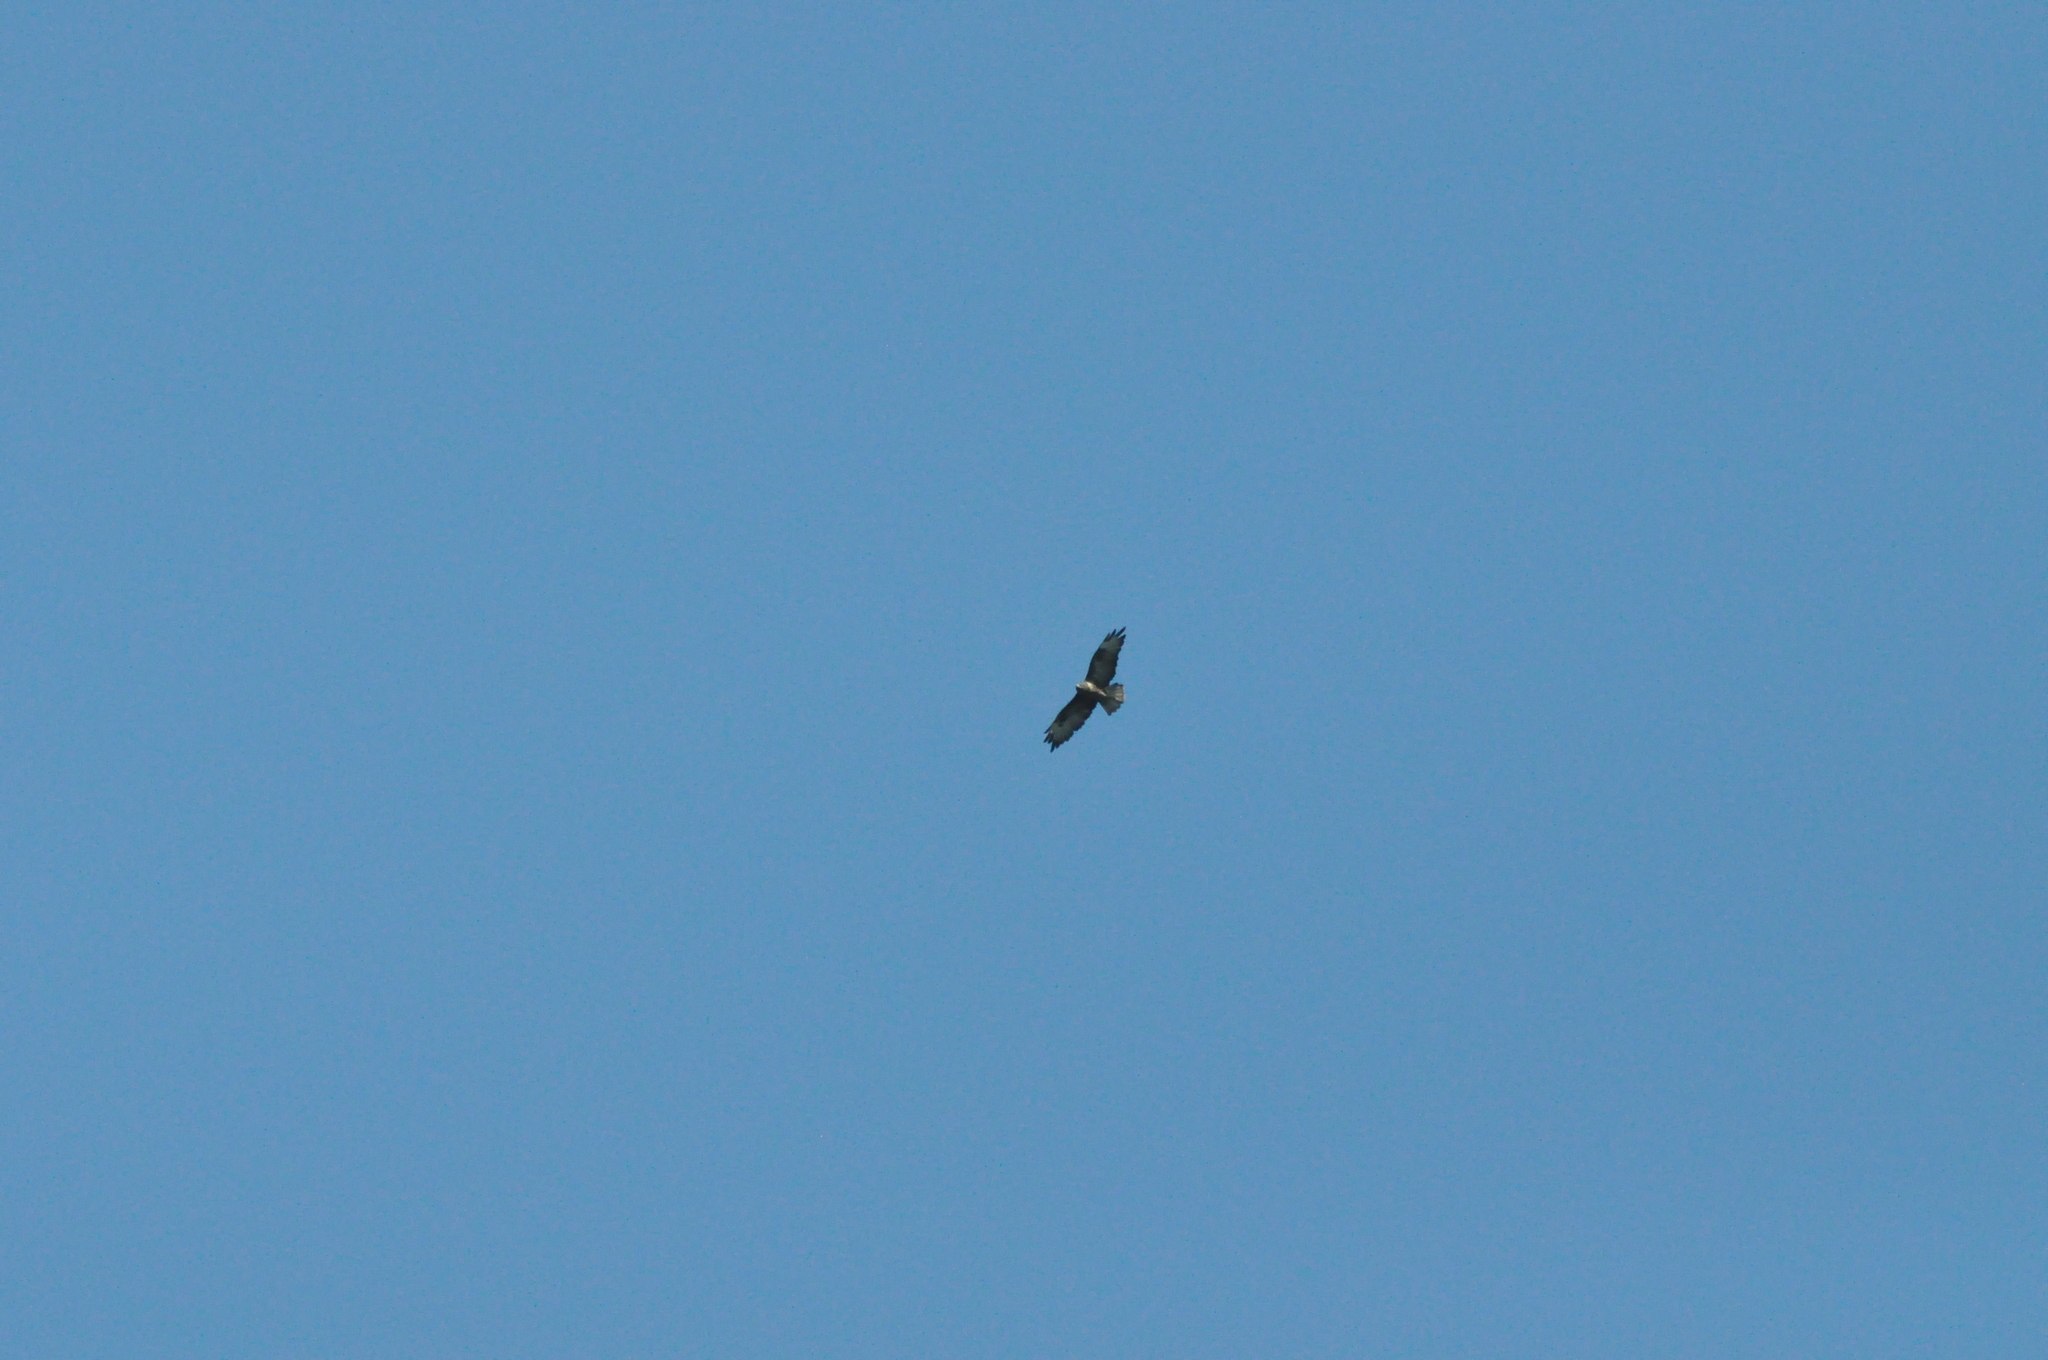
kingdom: Animalia
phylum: Chordata
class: Aves
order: Accipitriformes
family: Accipitridae
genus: Buteo
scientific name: Buteo buteo
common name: Common buzzard
